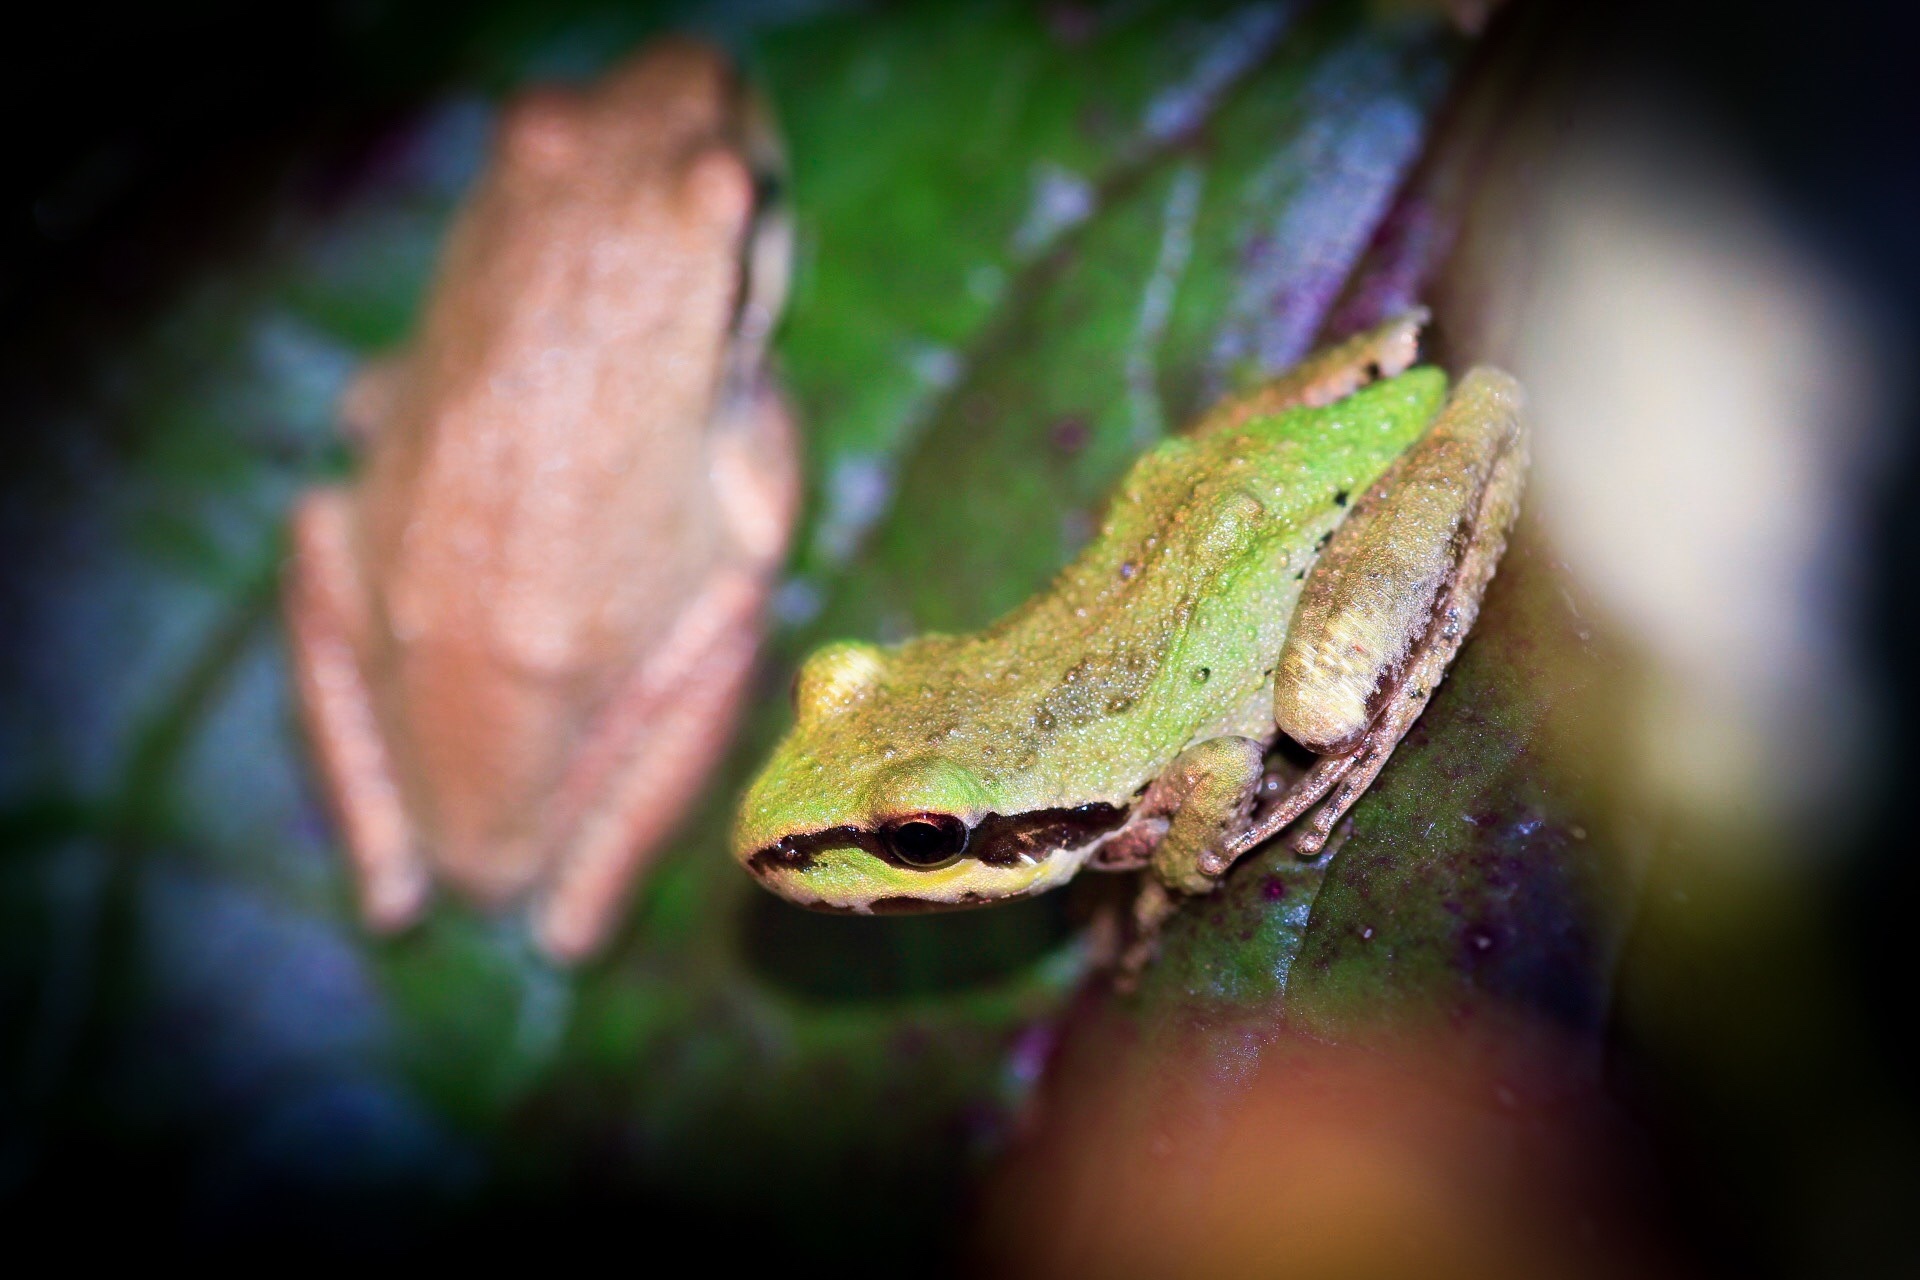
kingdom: Animalia
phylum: Chordata
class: Amphibia
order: Anura
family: Hylidae
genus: Pseudacris
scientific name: Pseudacris regilla
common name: Pacific chorus frog
